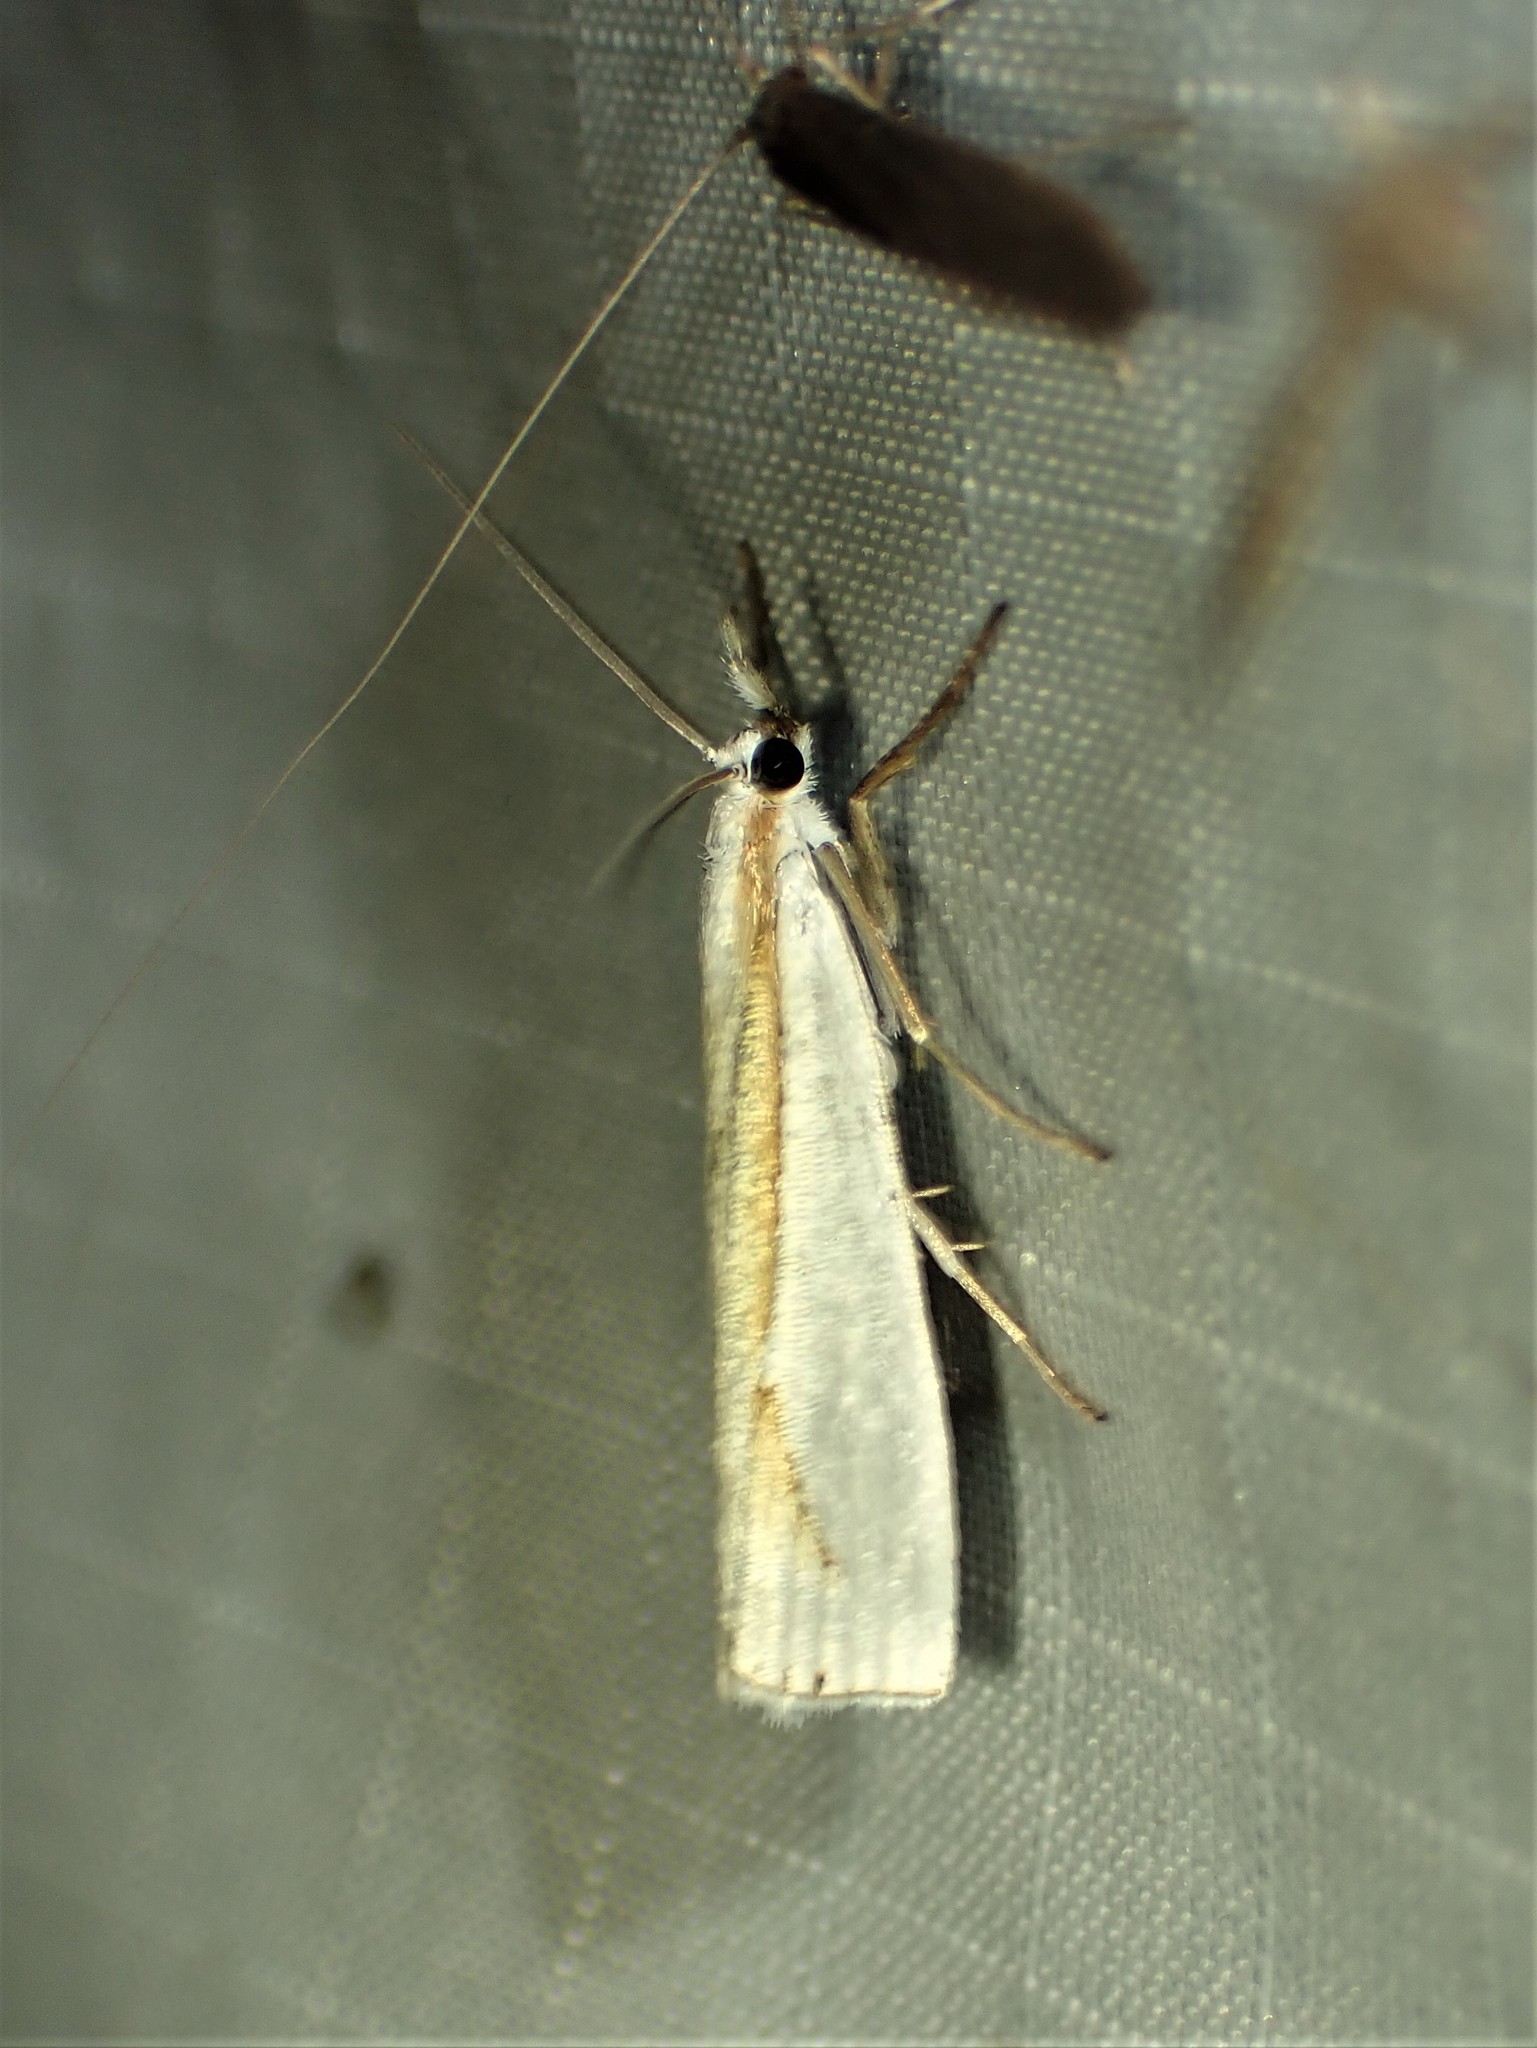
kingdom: Animalia
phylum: Arthropoda
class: Insecta
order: Lepidoptera
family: Crambidae
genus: Crambus
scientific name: Crambus girardellus
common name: Girard's grass-veneer
